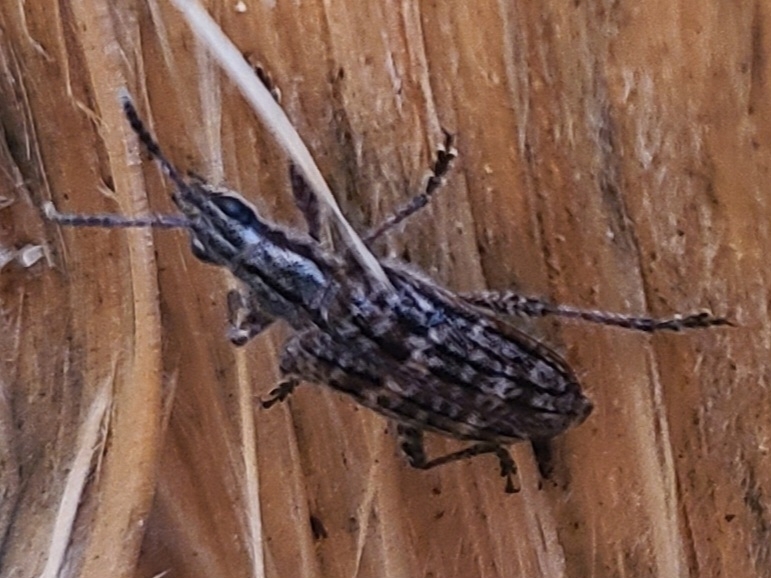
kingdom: Animalia
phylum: Arthropoda
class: Insecta
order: Coleoptera
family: Cerambycidae
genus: Rhagium
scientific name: Rhagium inquisitor
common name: Ribbed pine borer
